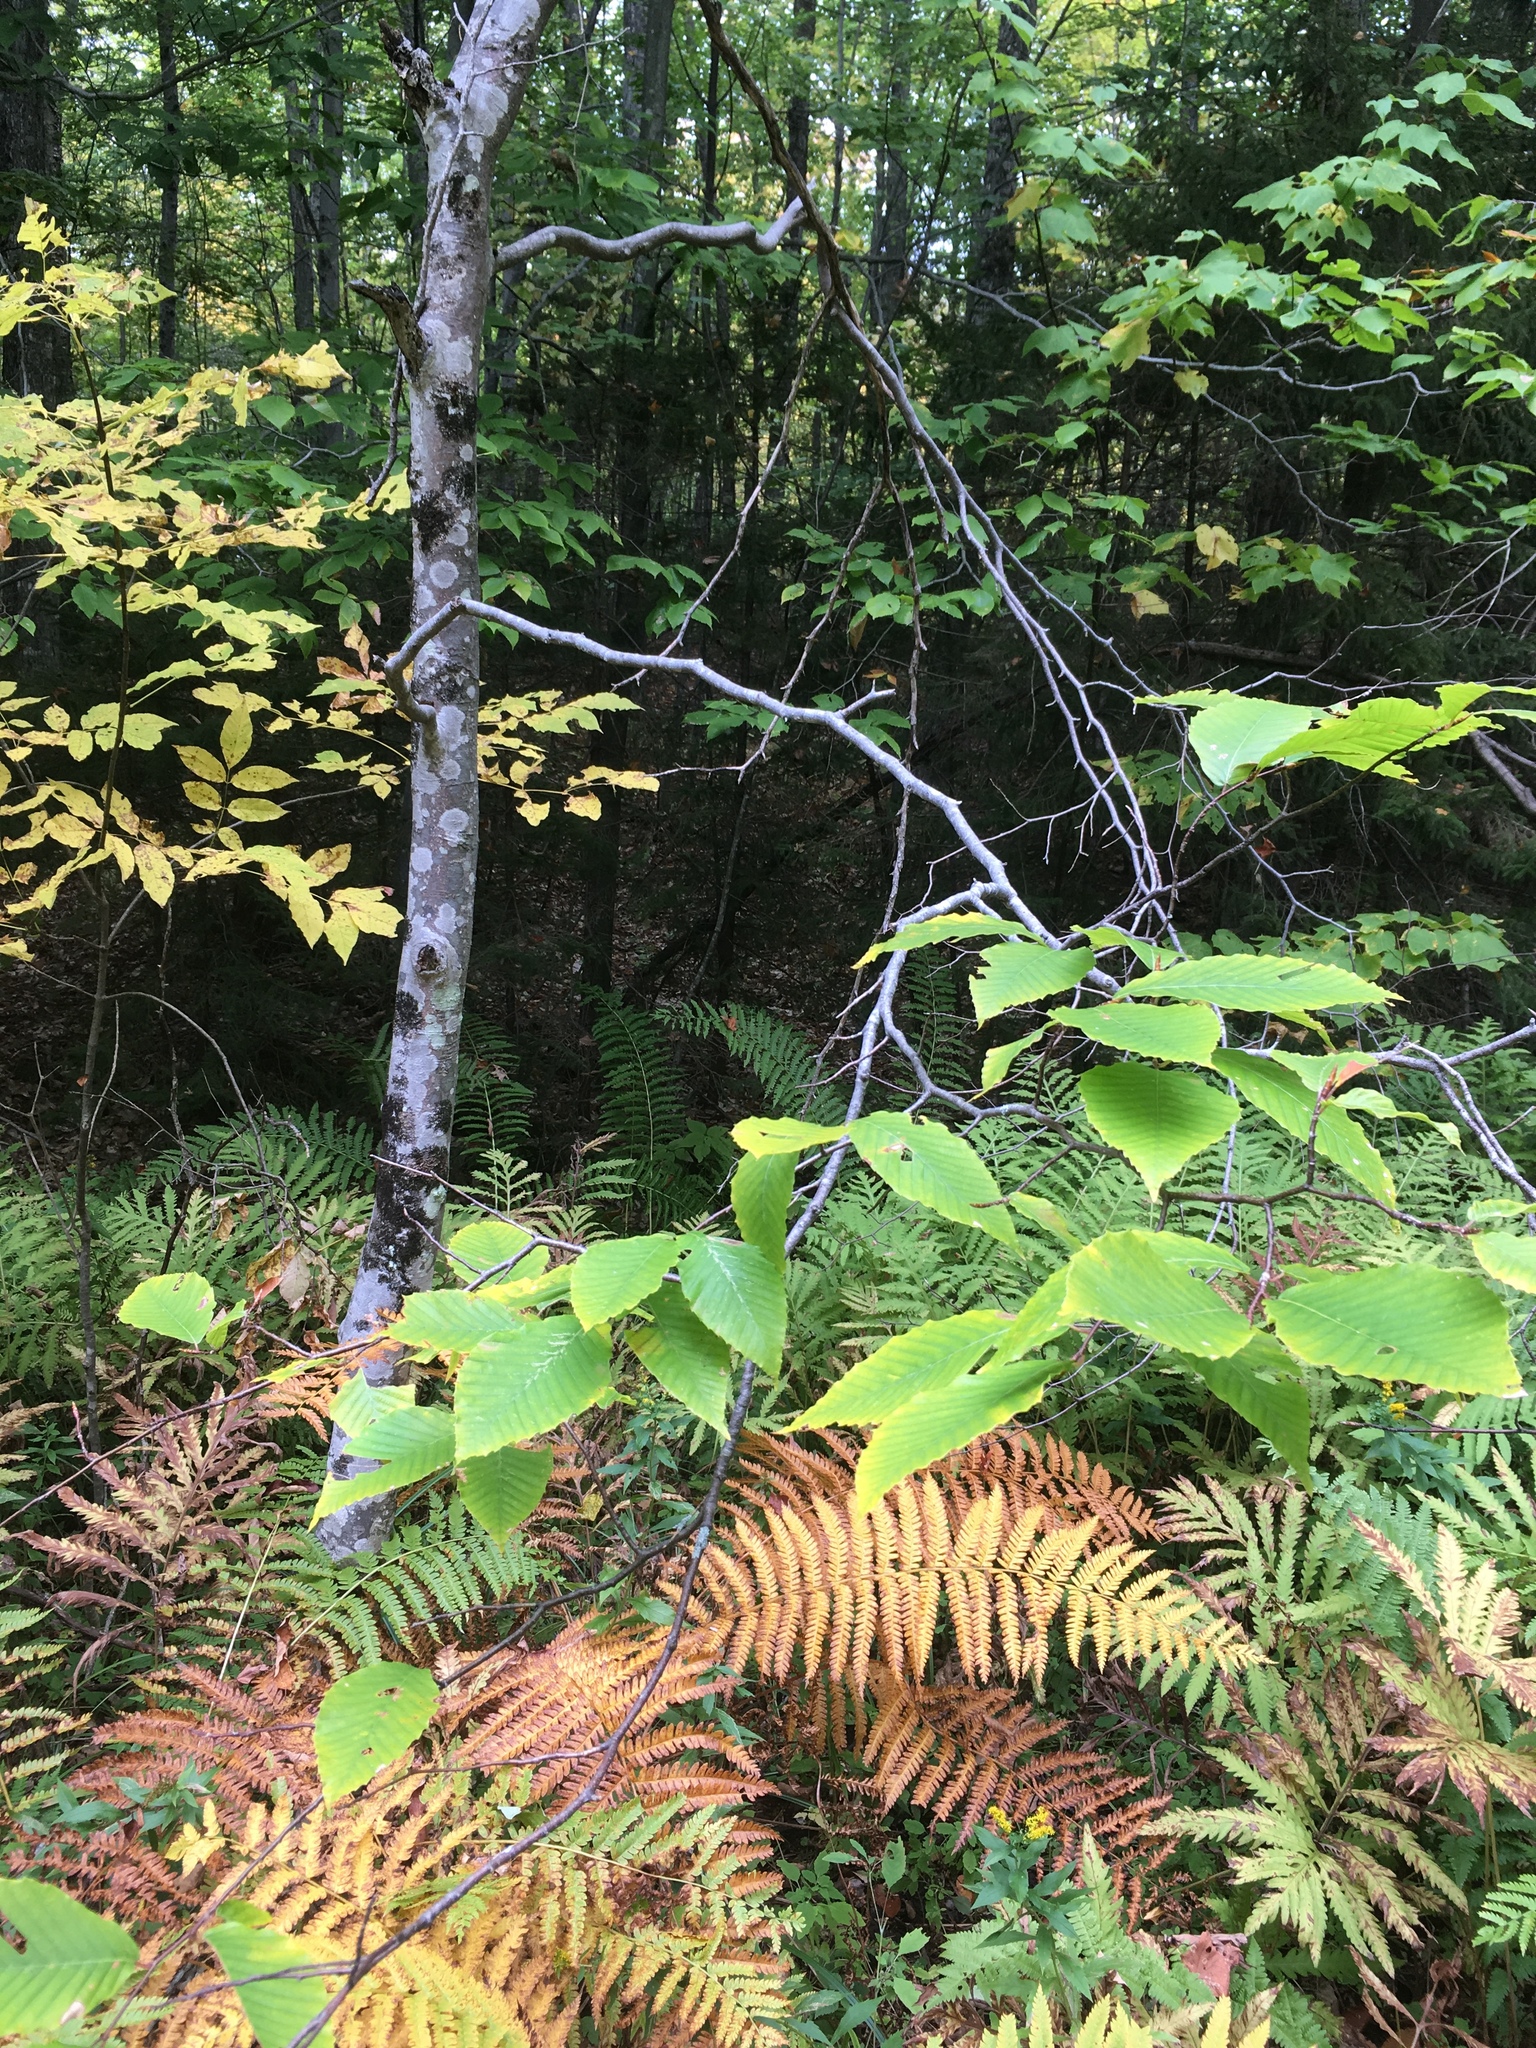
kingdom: Plantae
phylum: Tracheophyta
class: Magnoliopsida
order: Fagales
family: Fagaceae
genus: Fagus
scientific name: Fagus grandifolia
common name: American beech
